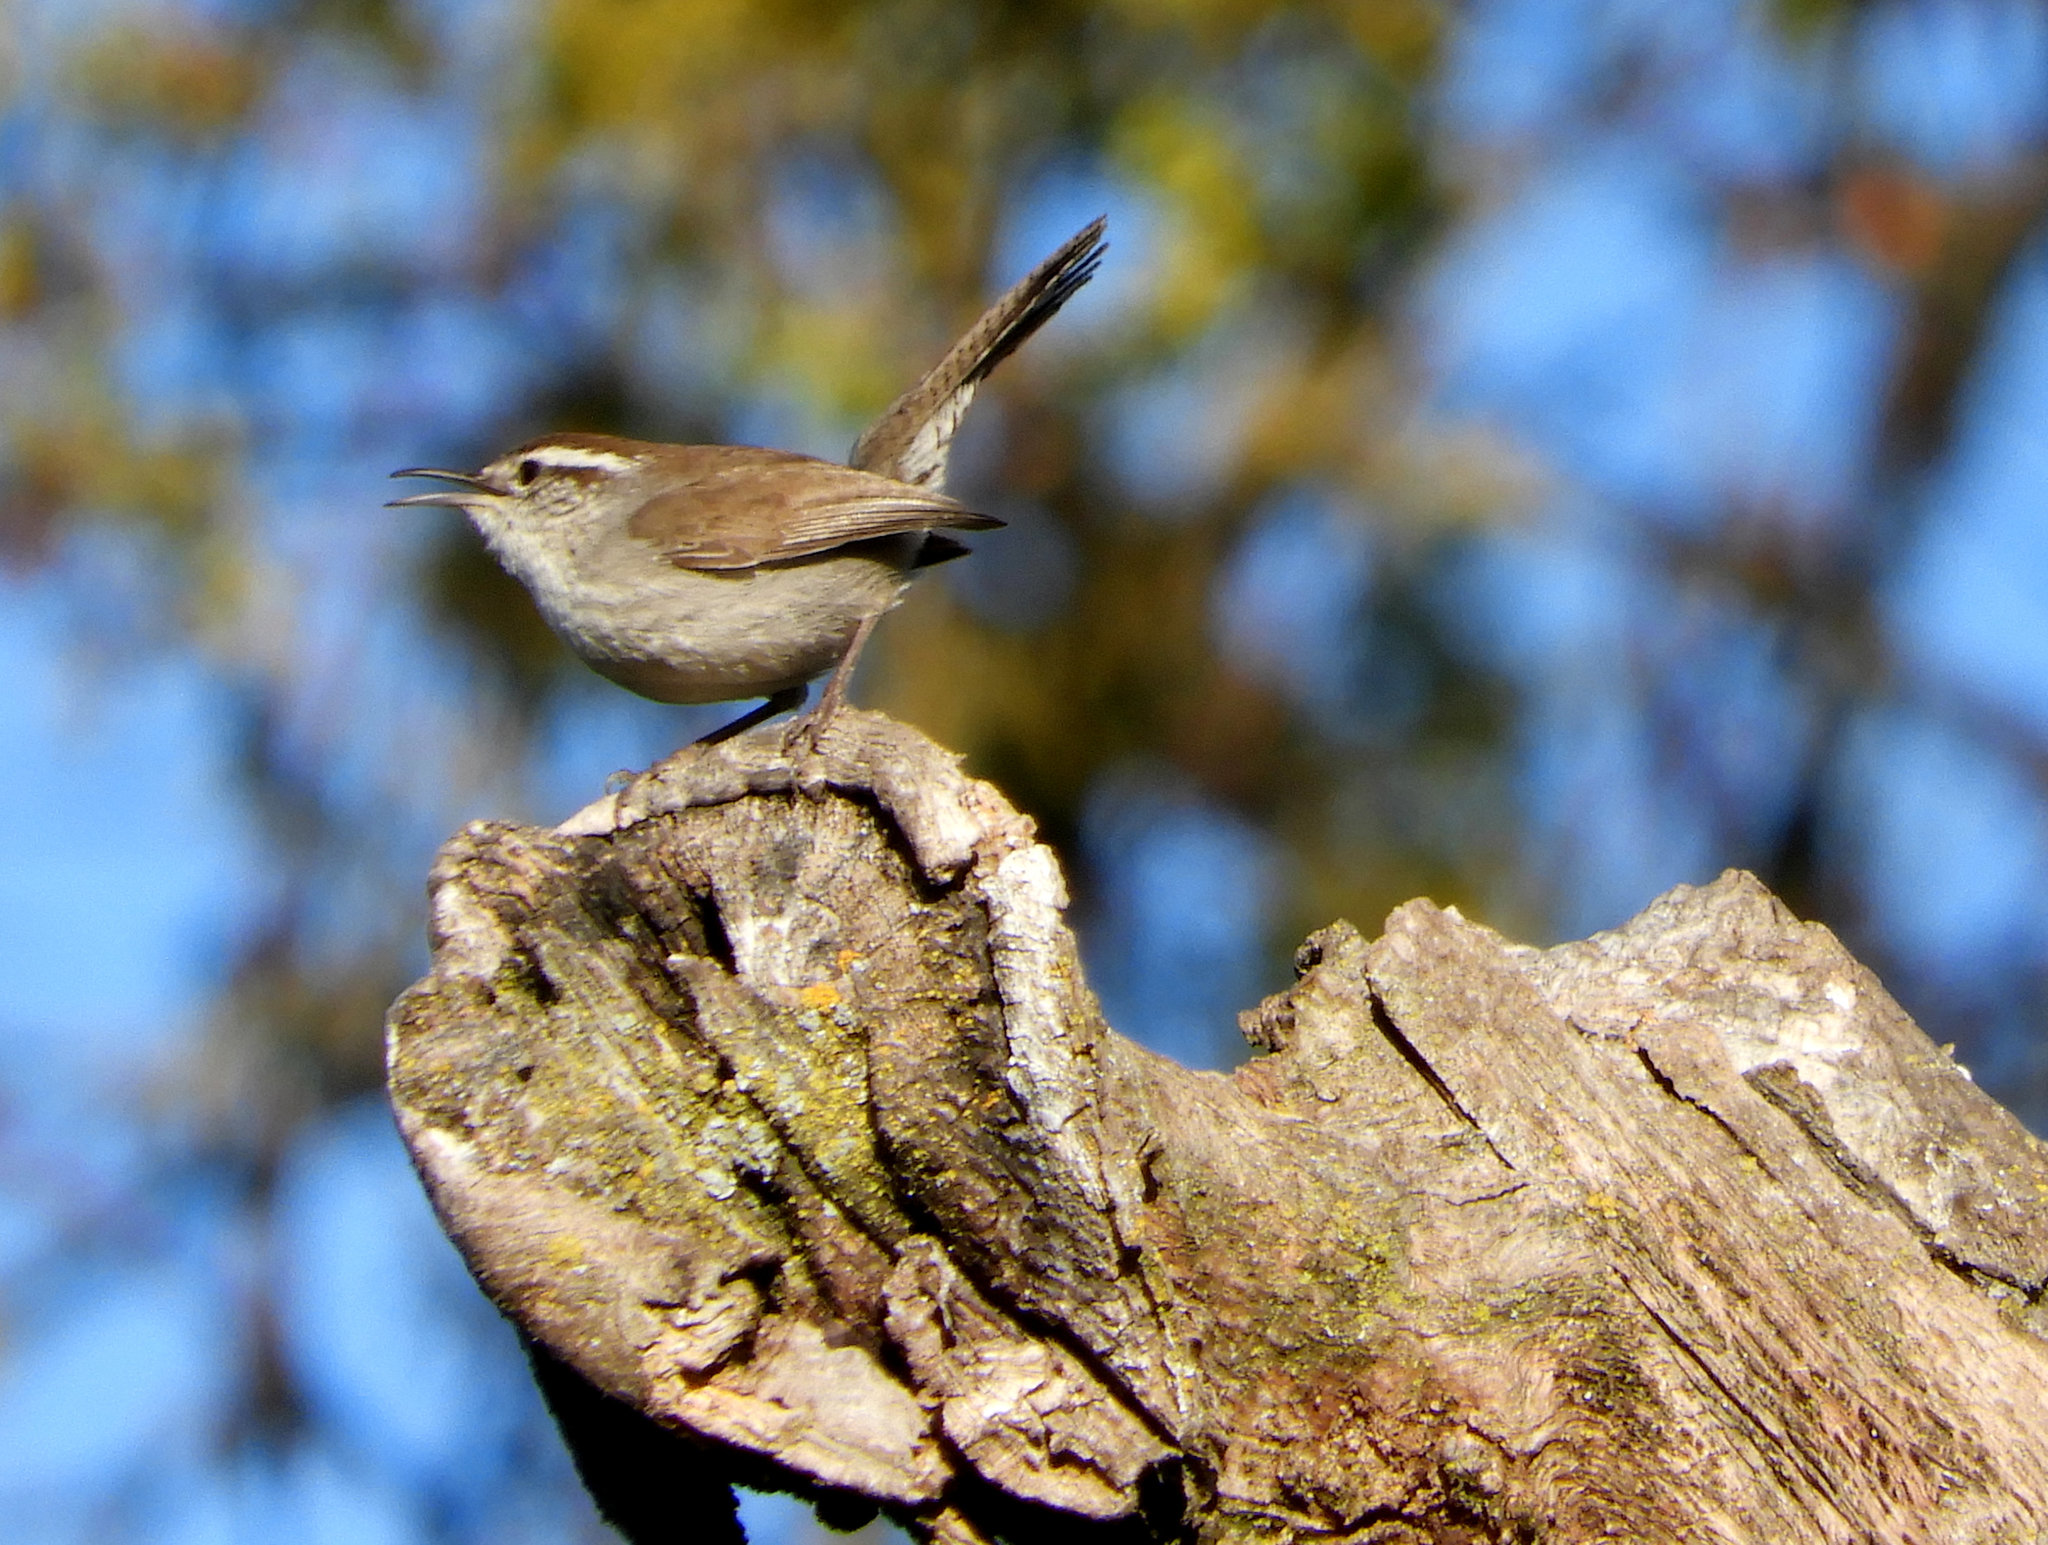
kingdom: Animalia
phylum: Chordata
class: Aves
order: Passeriformes
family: Troglodytidae
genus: Thryomanes
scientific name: Thryomanes bewickii
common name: Bewick's wren
